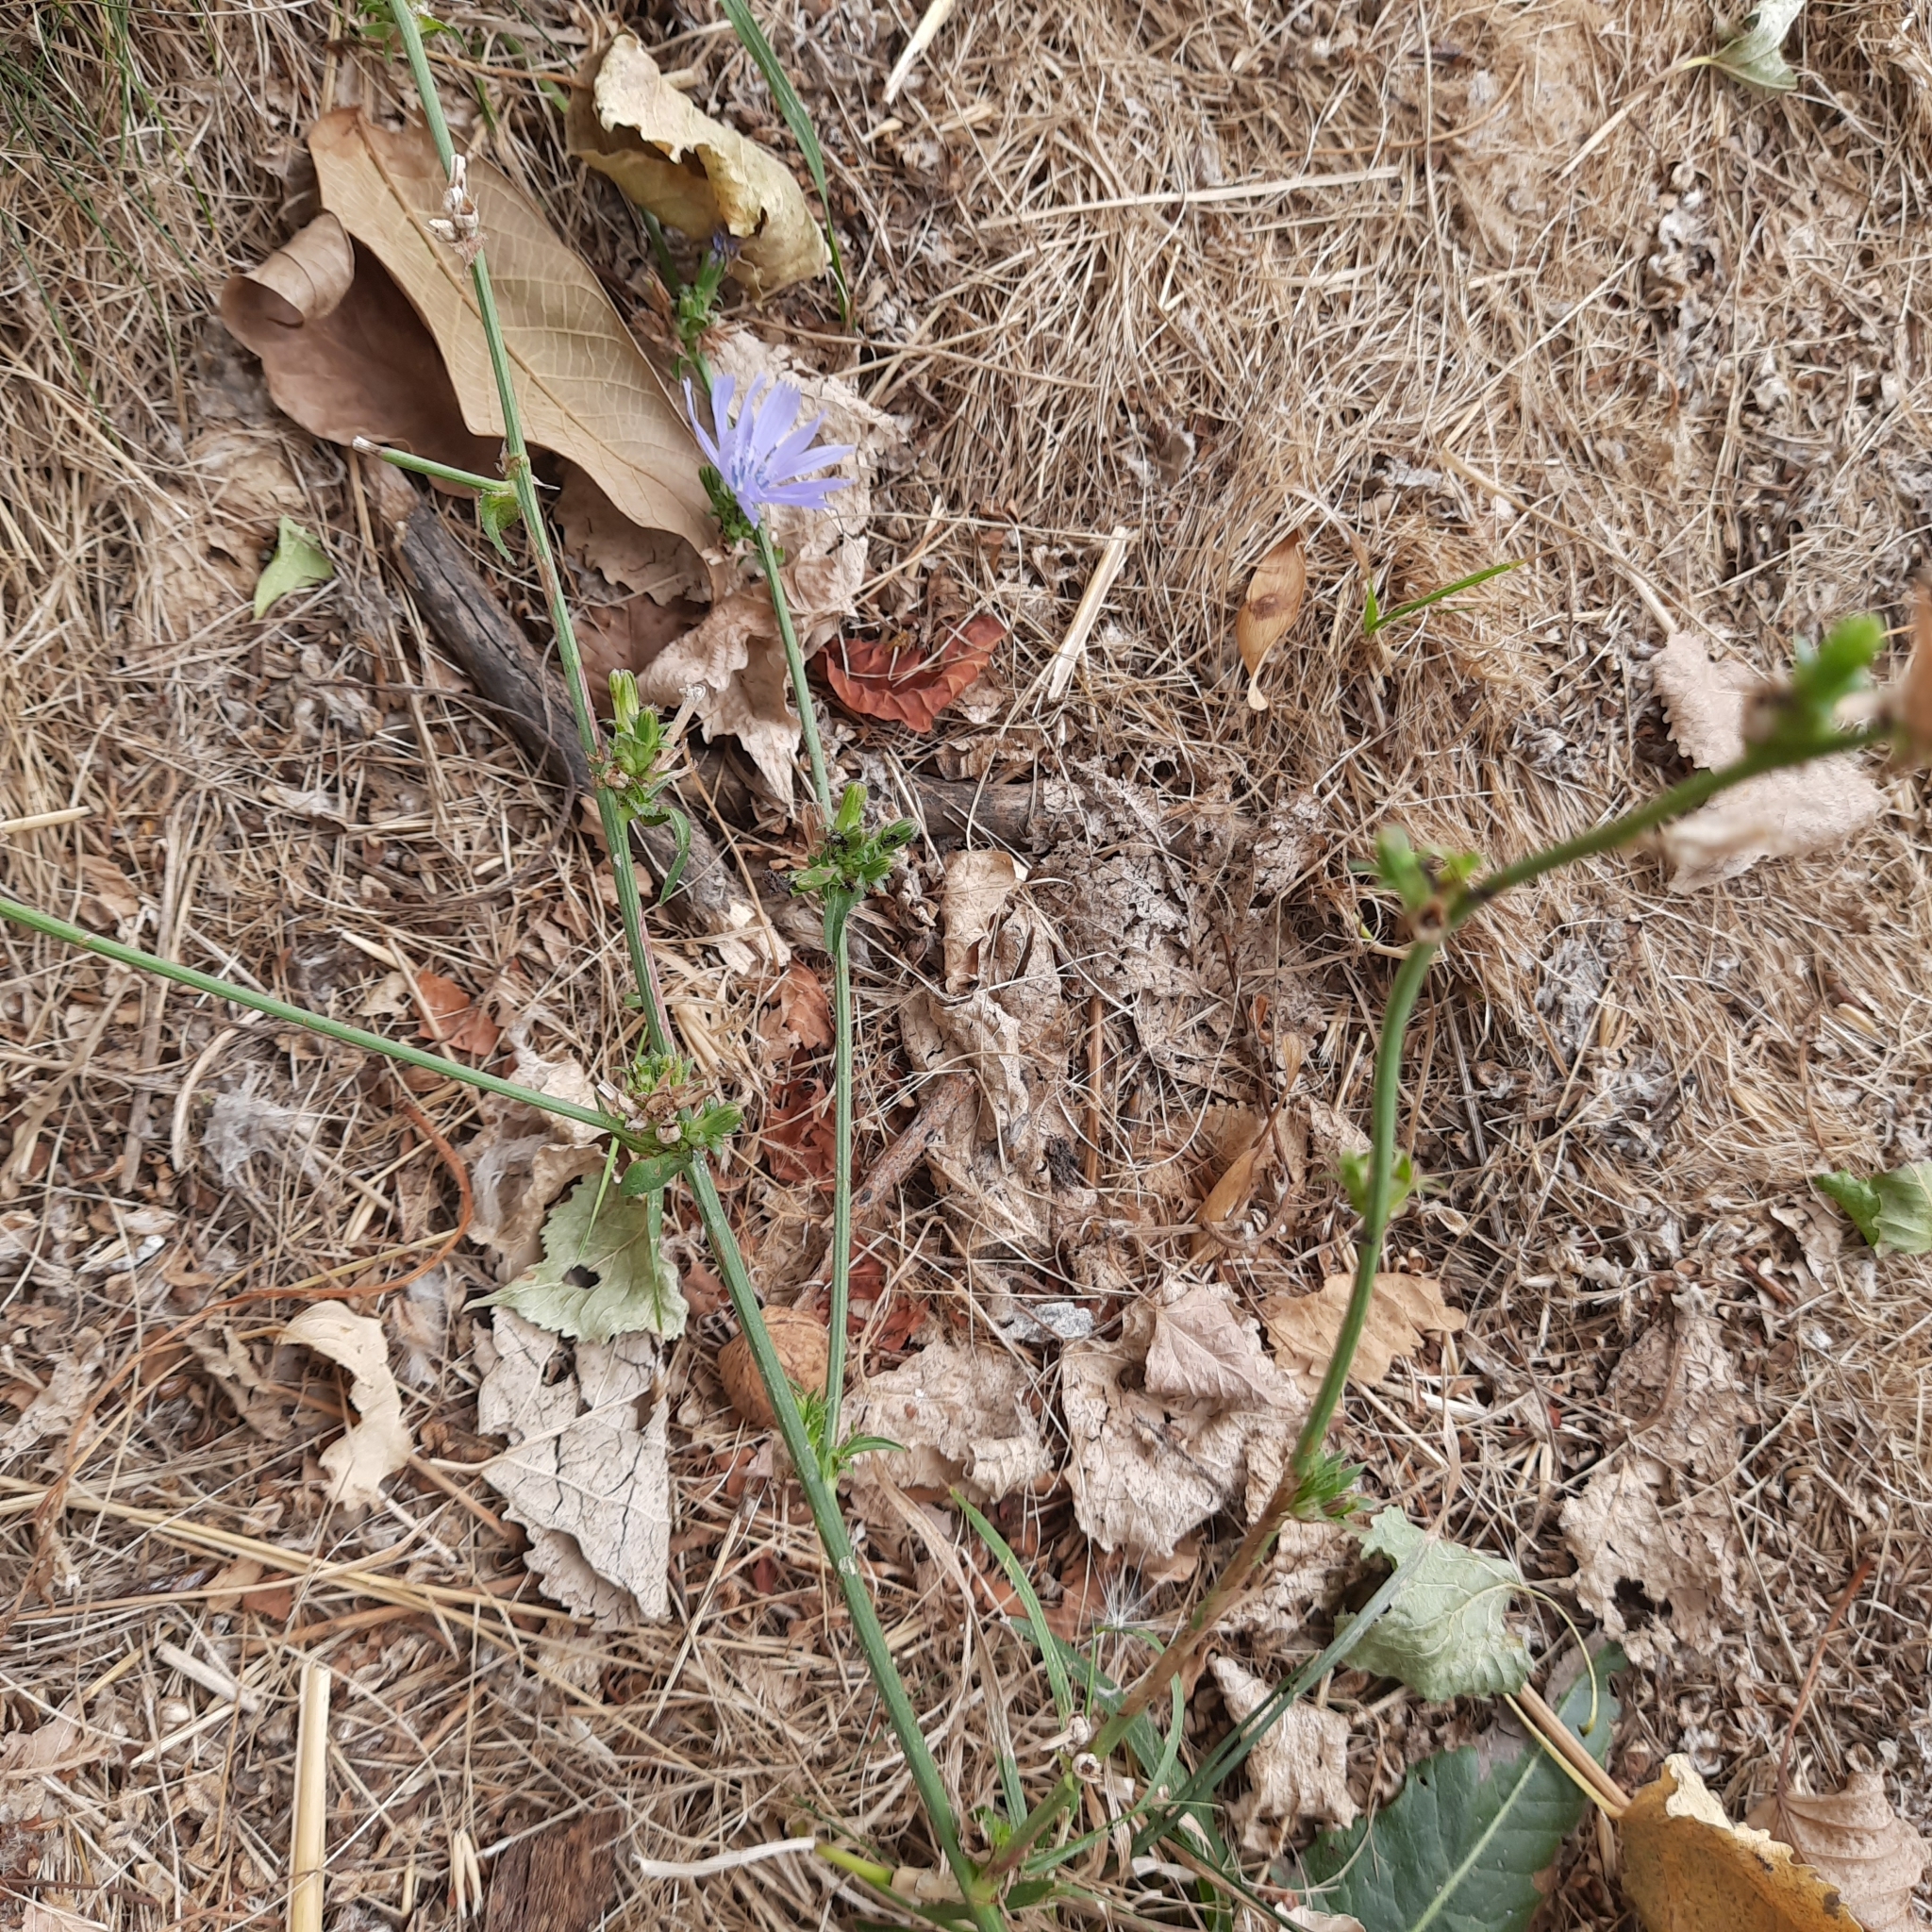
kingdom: Plantae
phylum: Tracheophyta
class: Magnoliopsida
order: Asterales
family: Asteraceae
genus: Cichorium
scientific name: Cichorium intybus
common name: Chicory
